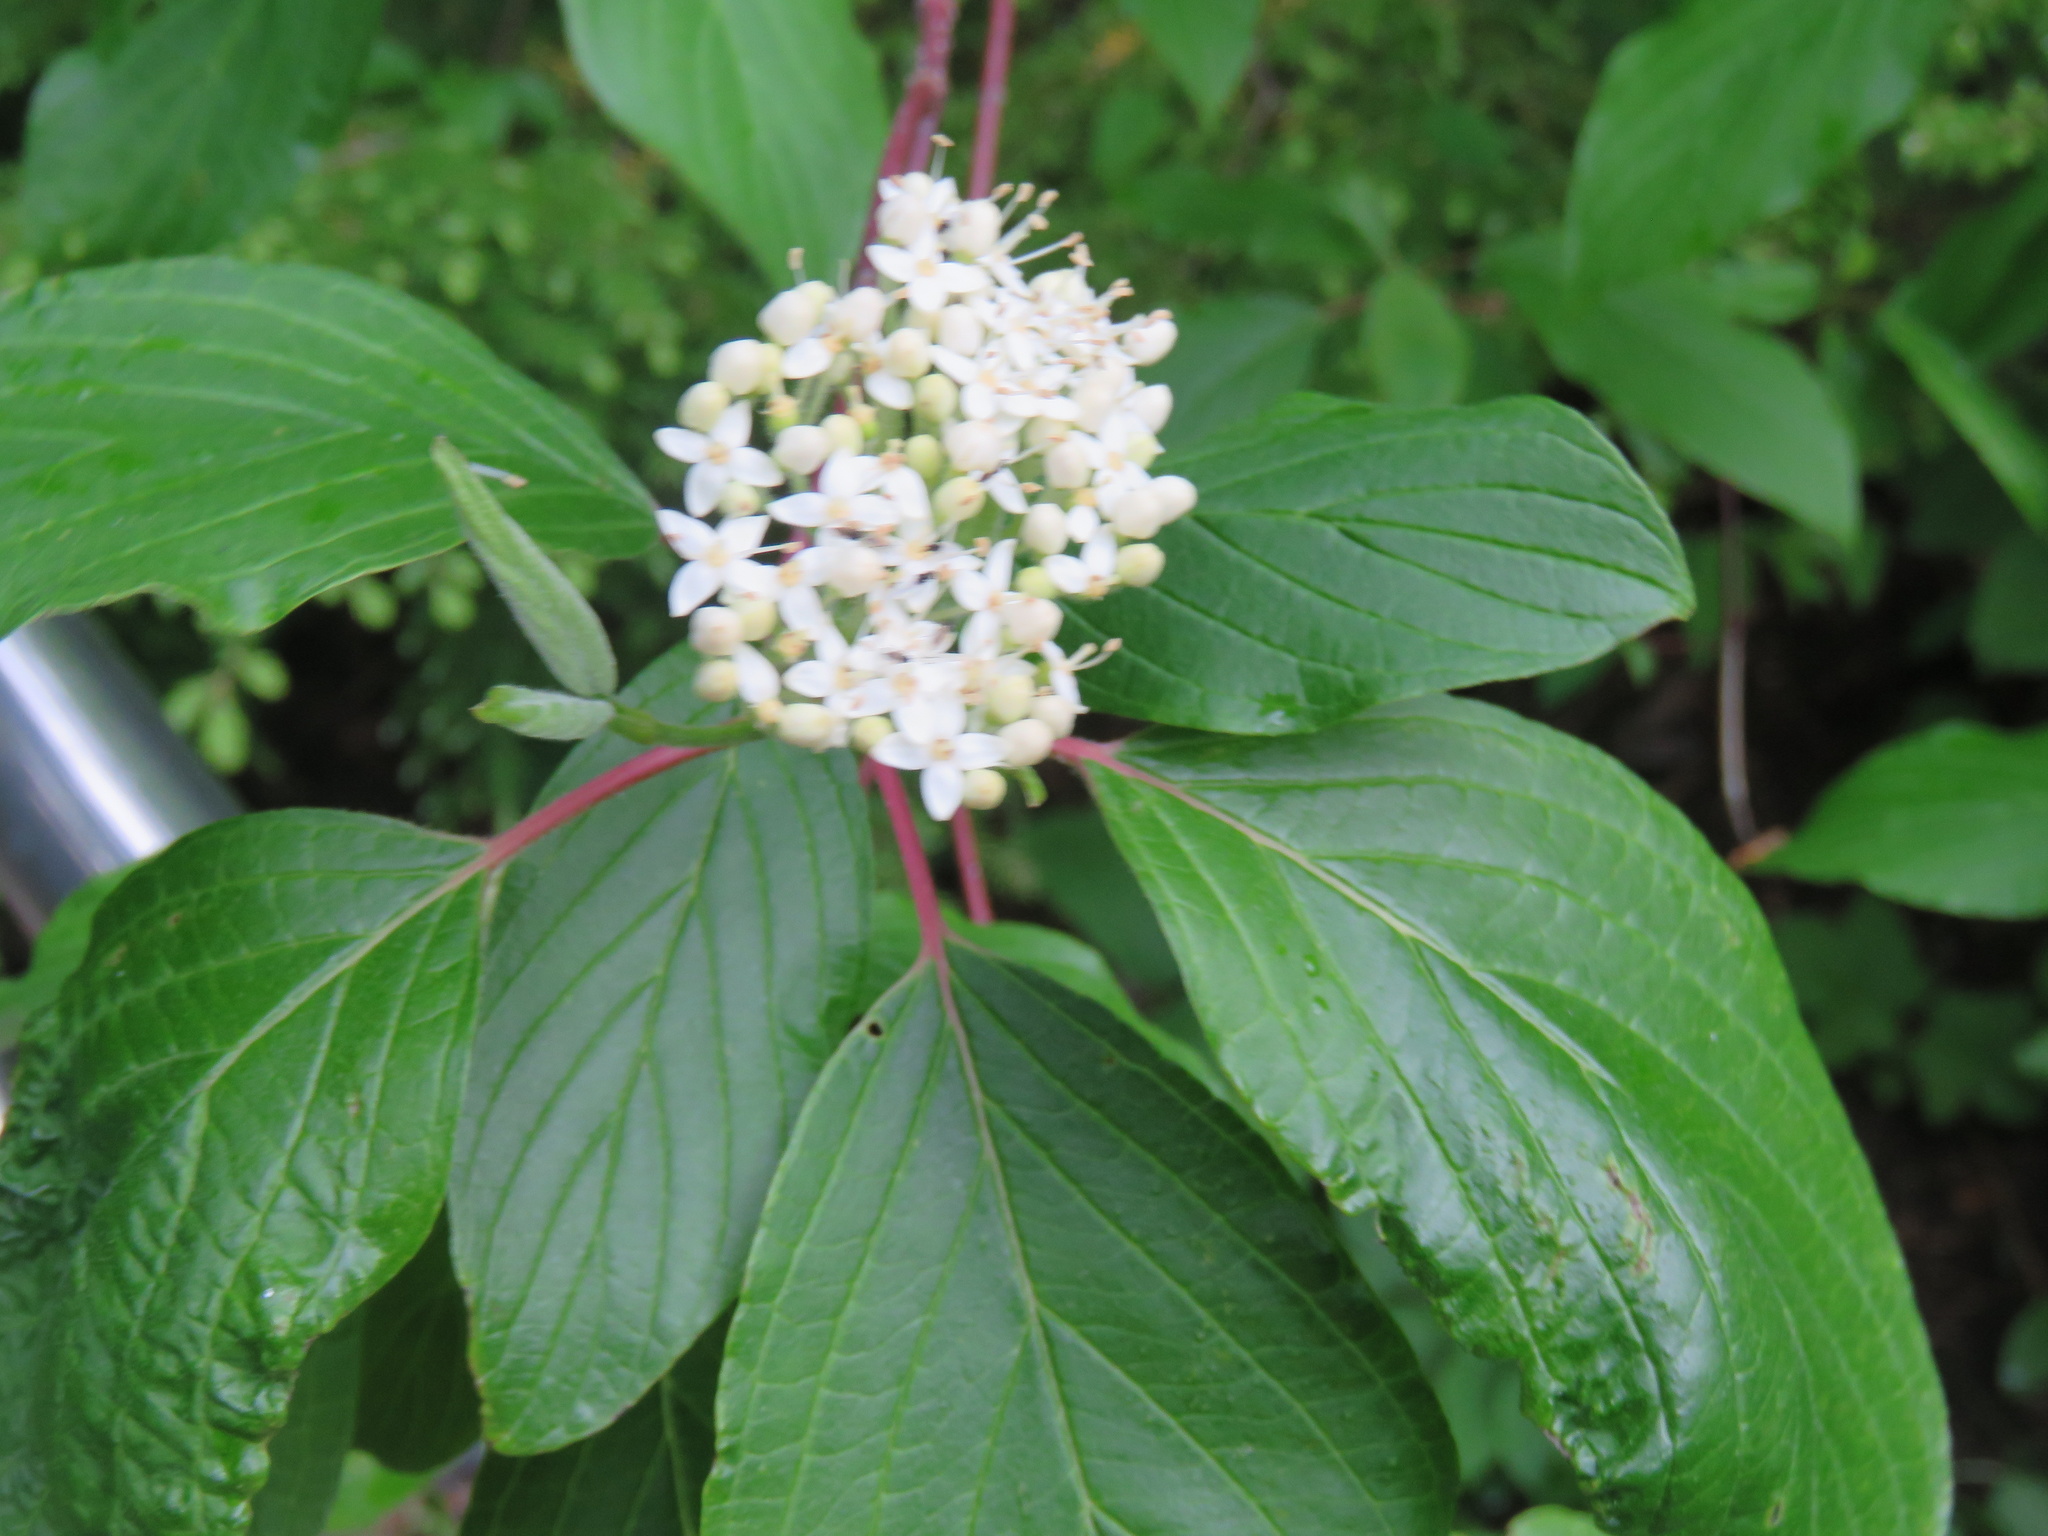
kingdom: Plantae
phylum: Tracheophyta
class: Magnoliopsida
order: Cornales
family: Cornaceae
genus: Cornus
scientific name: Cornus sericea
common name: Red-osier dogwood
